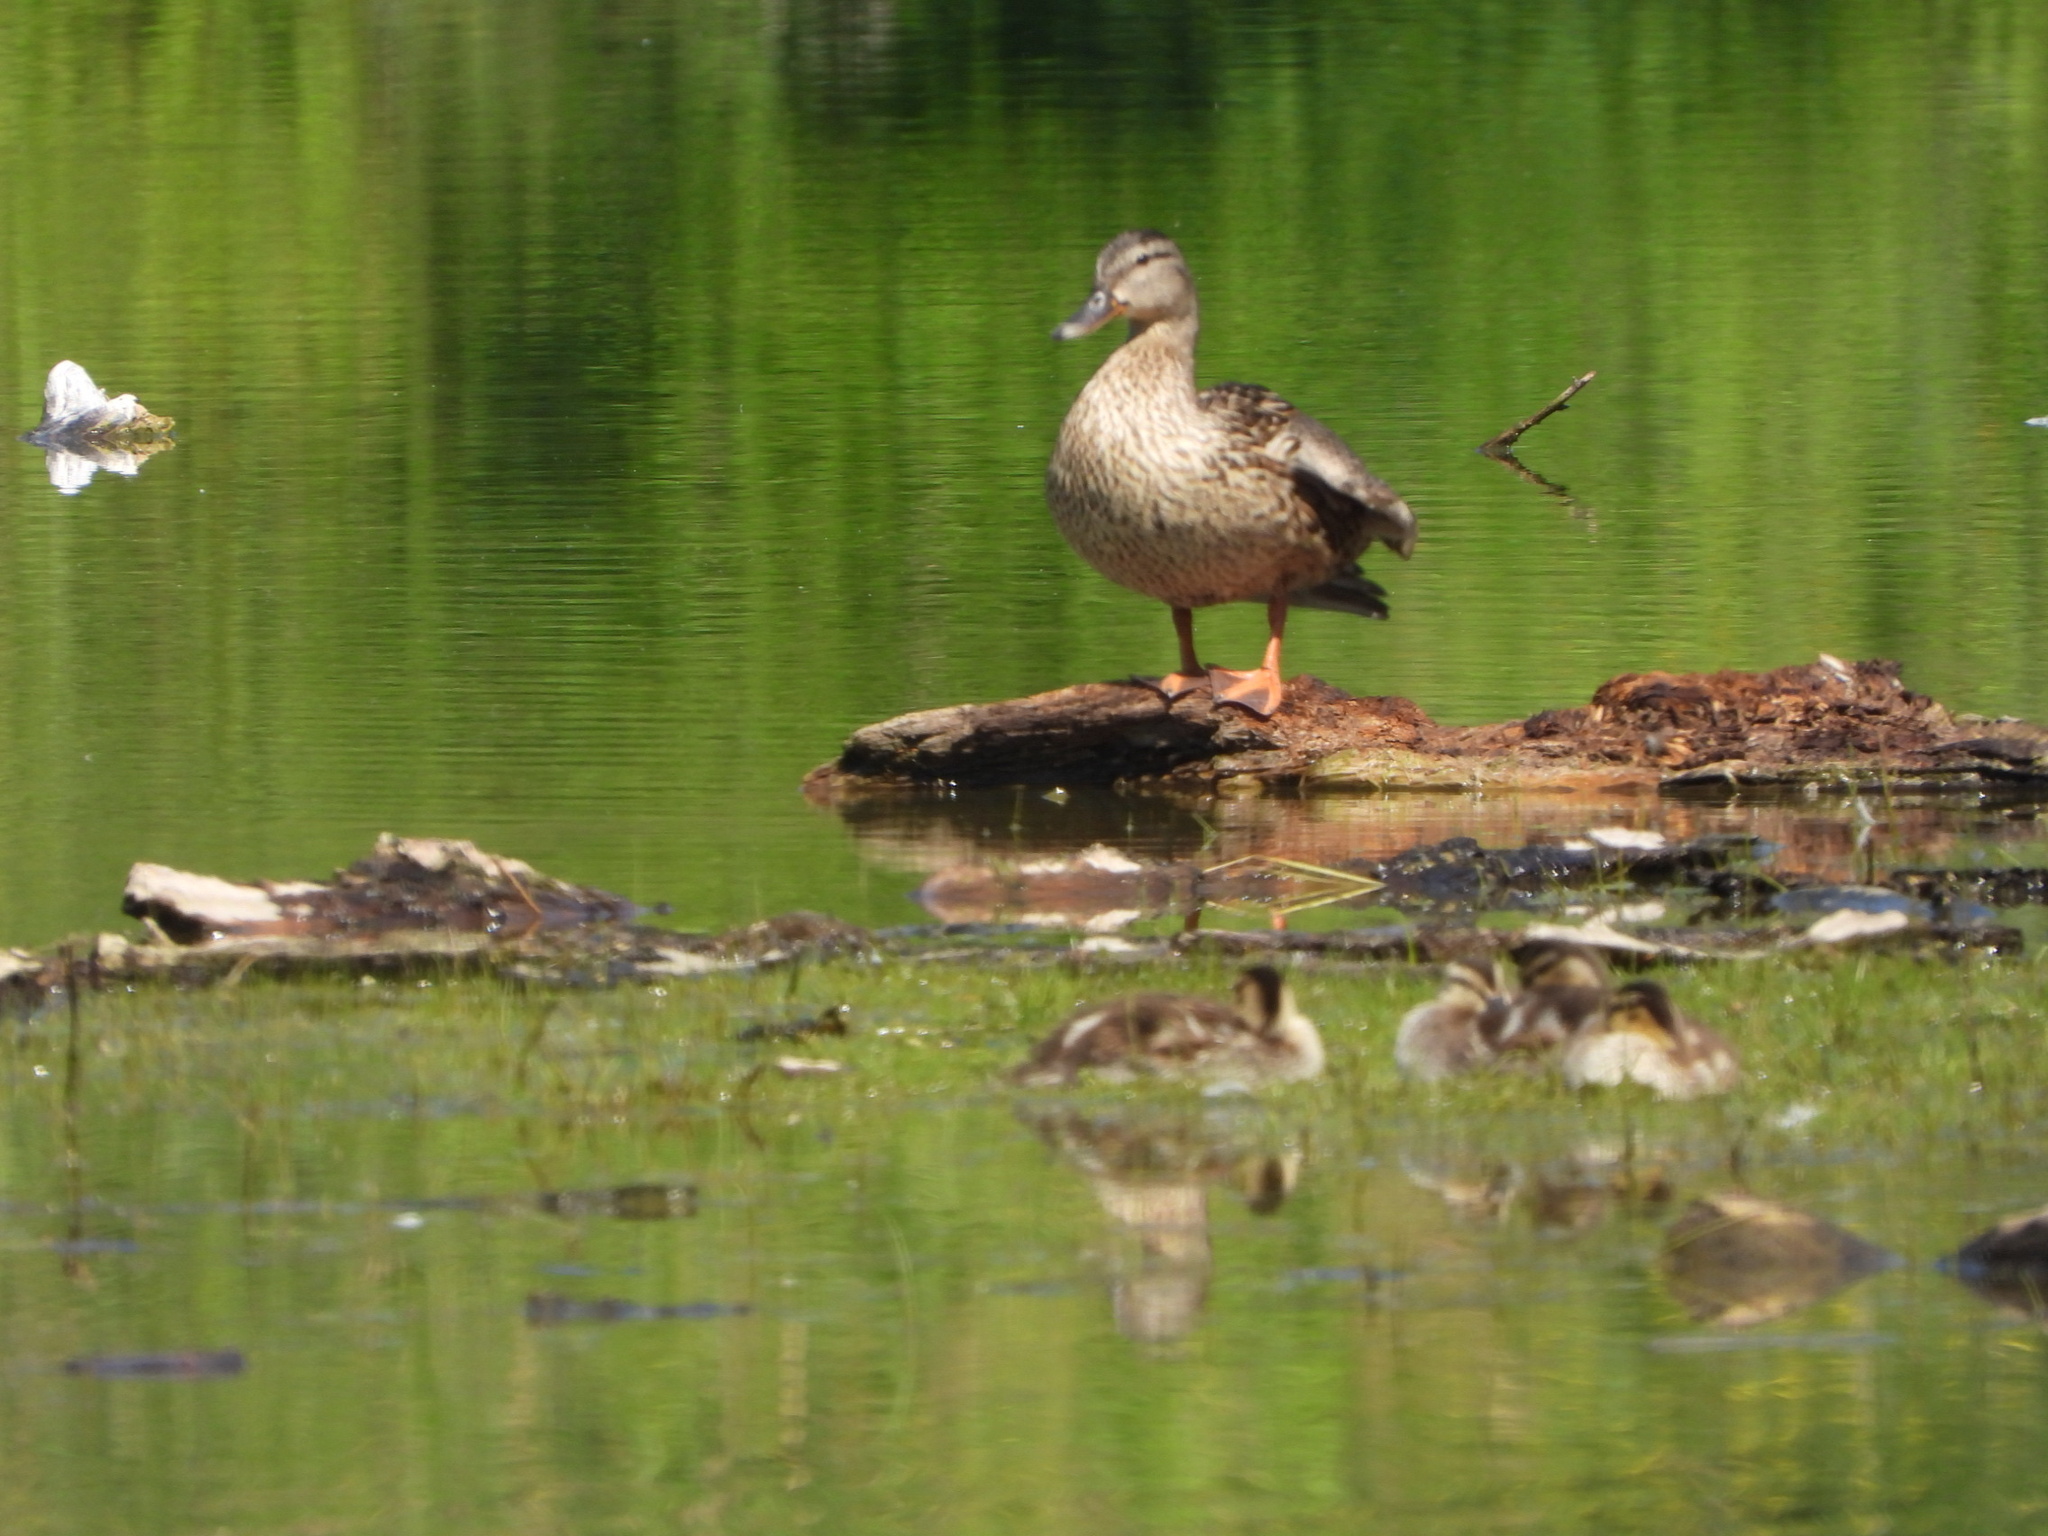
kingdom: Animalia
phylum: Chordata
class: Aves
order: Anseriformes
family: Anatidae
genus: Anas
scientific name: Anas platyrhynchos
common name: Mallard
